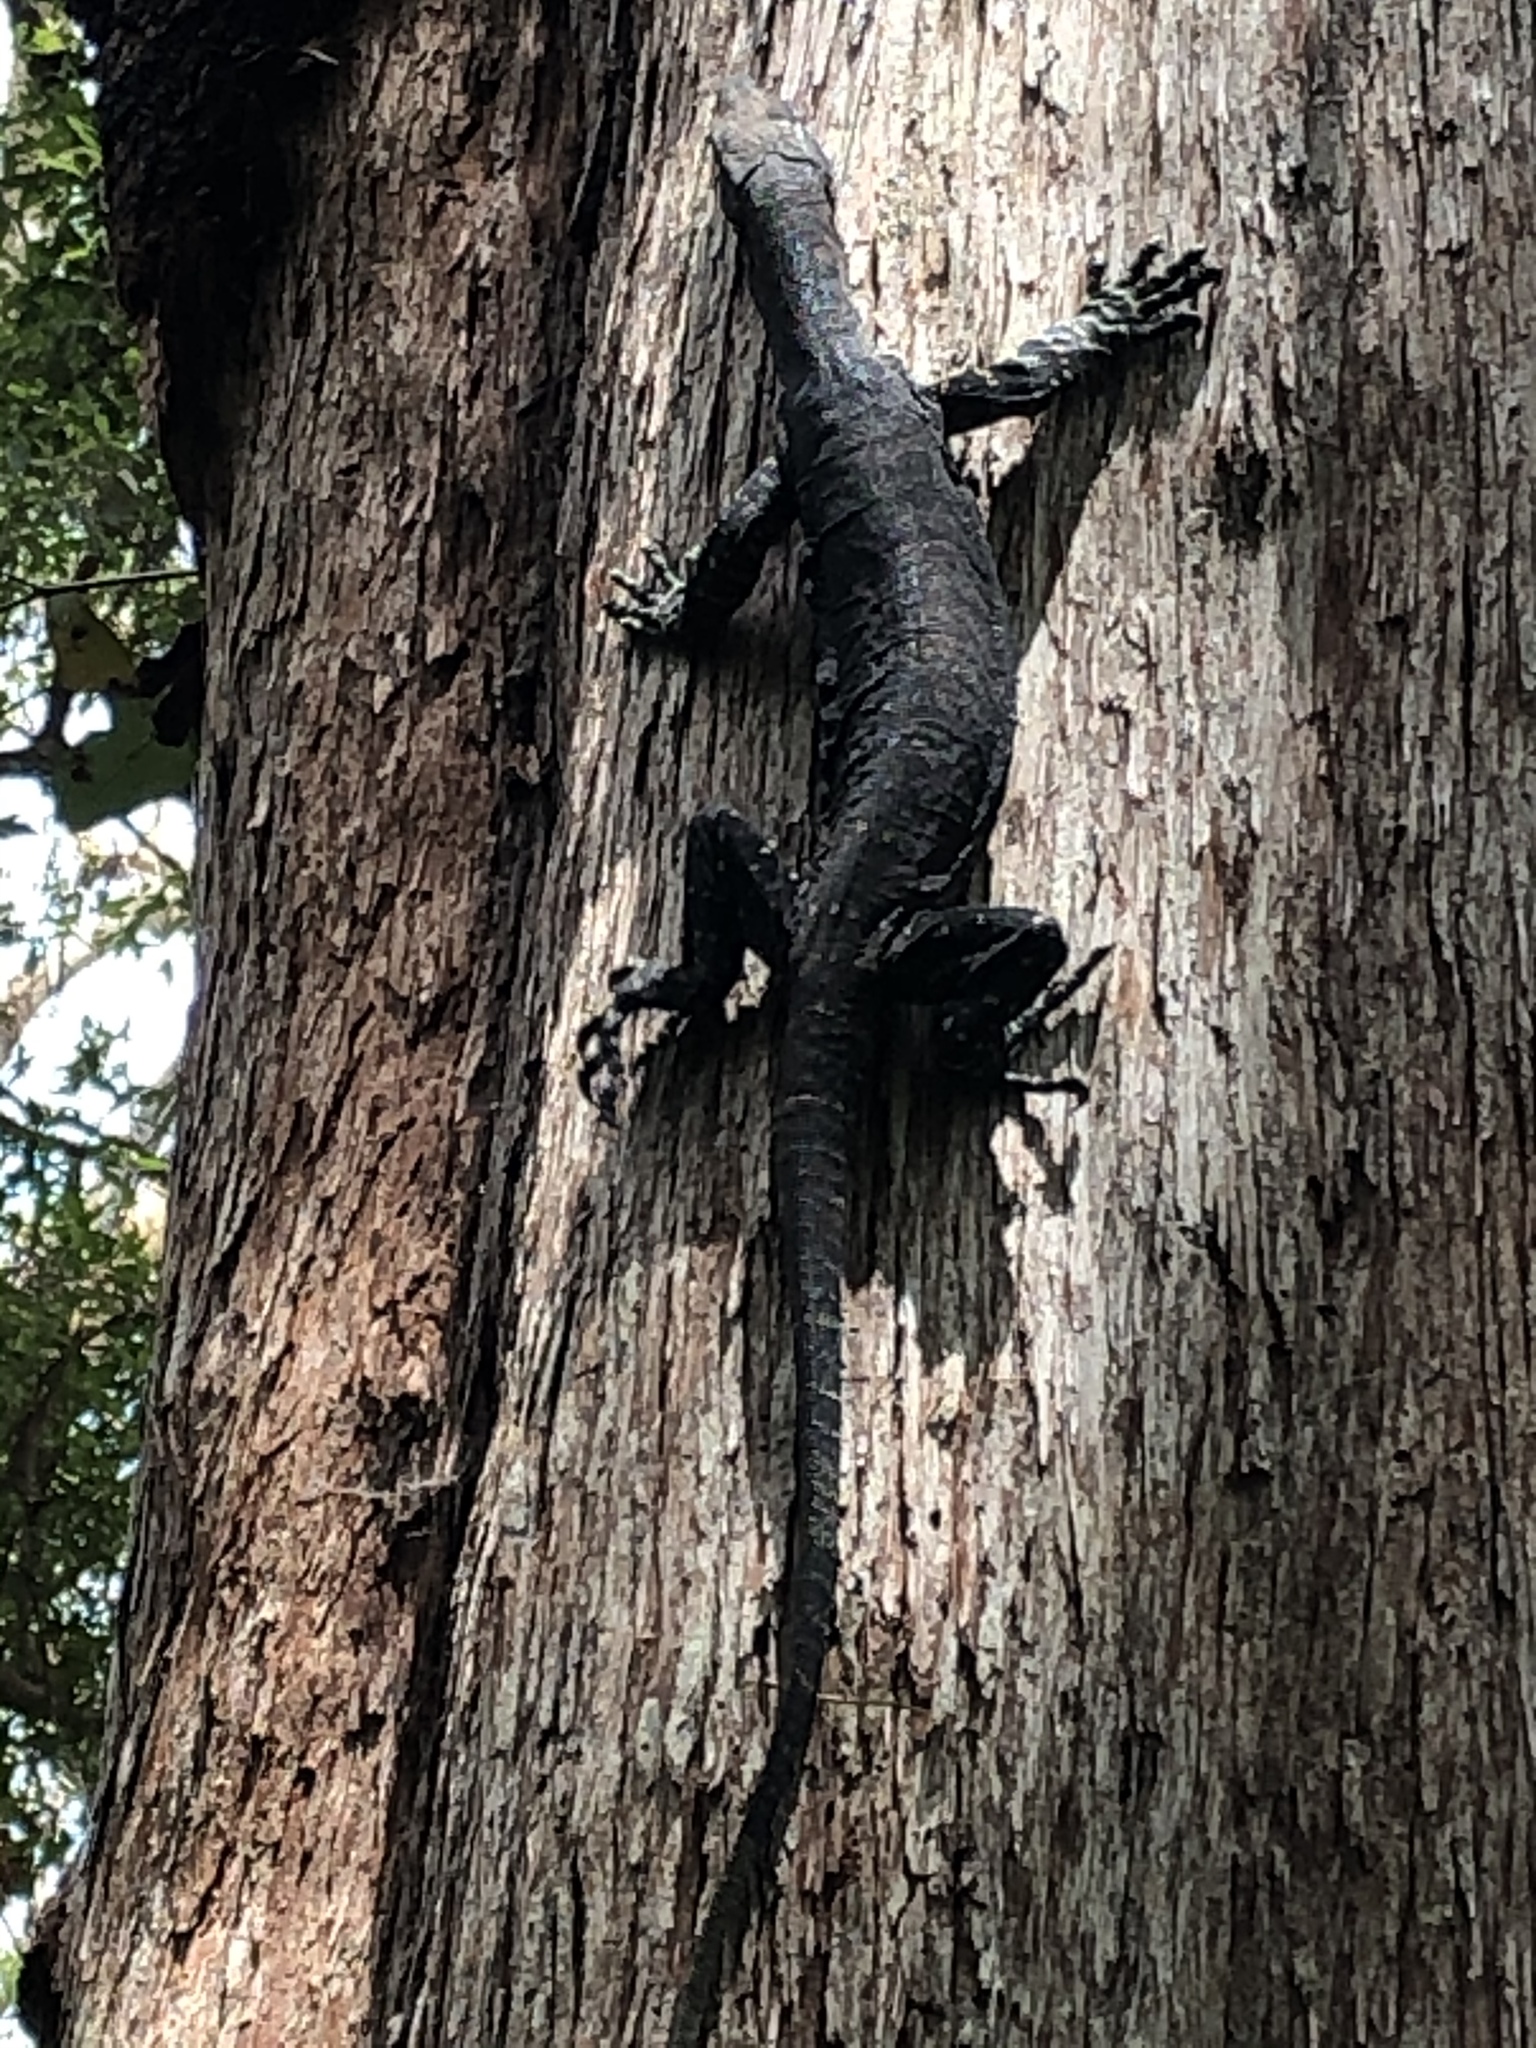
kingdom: Animalia
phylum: Chordata
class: Squamata
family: Varanidae
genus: Varanus
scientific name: Varanus varius
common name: Lace monitor
